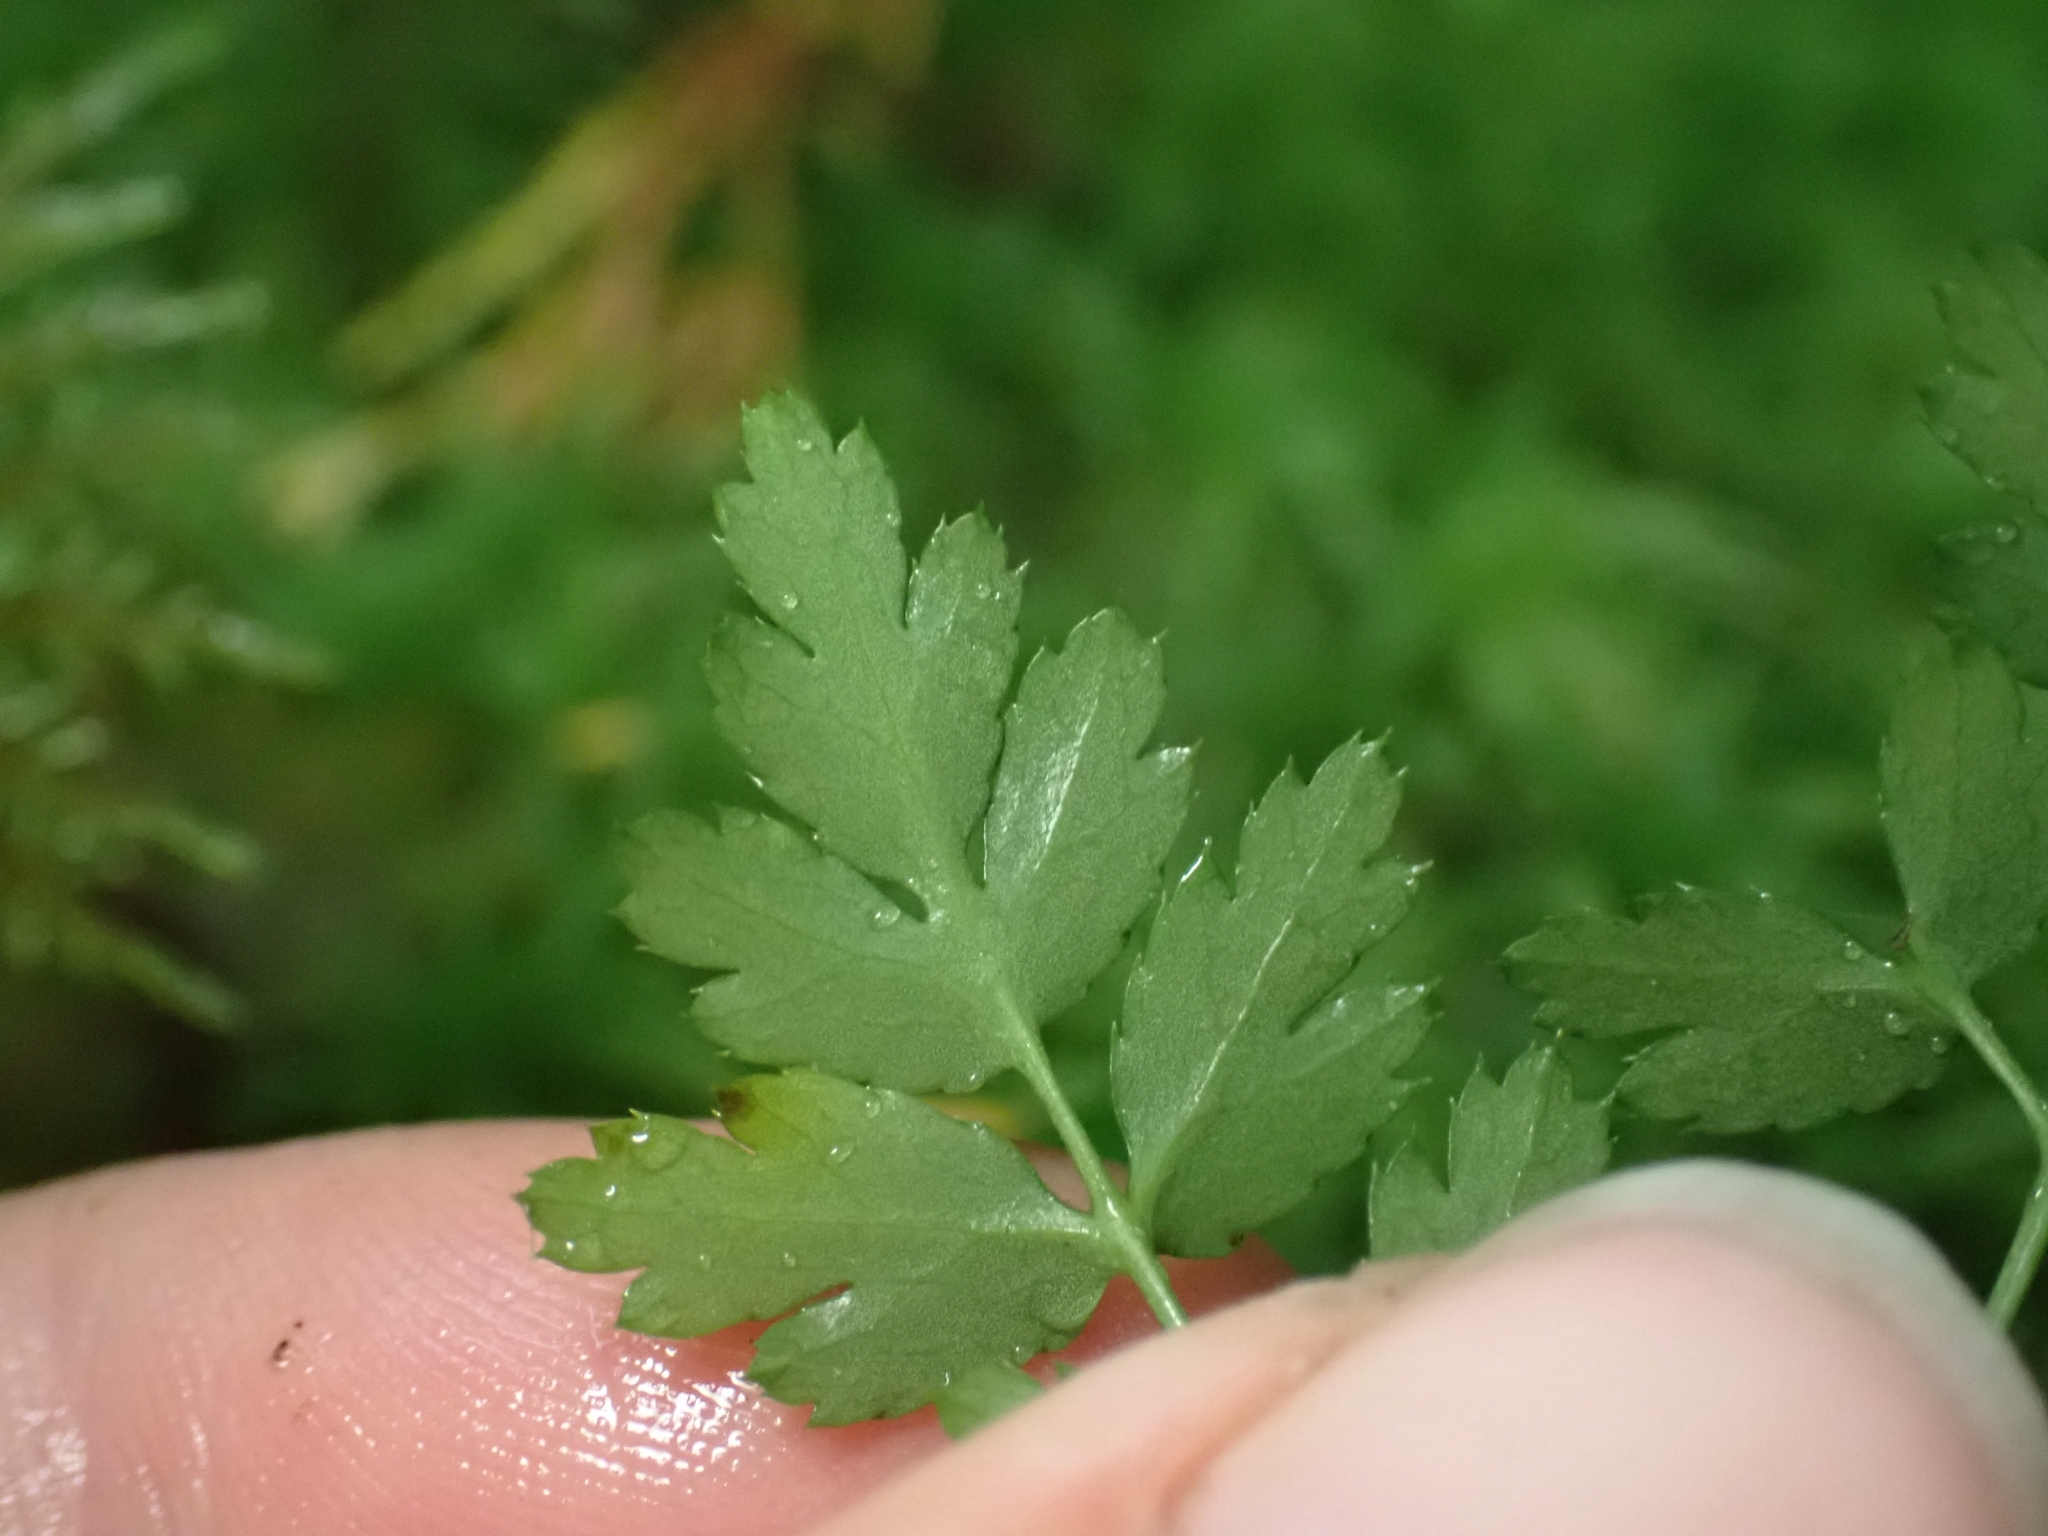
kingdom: Plantae
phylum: Tracheophyta
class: Magnoliopsida
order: Ranunculales
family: Ranunculaceae
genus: Coptis
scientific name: Coptis aspleniifolia
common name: Fern-leaved goldthread
